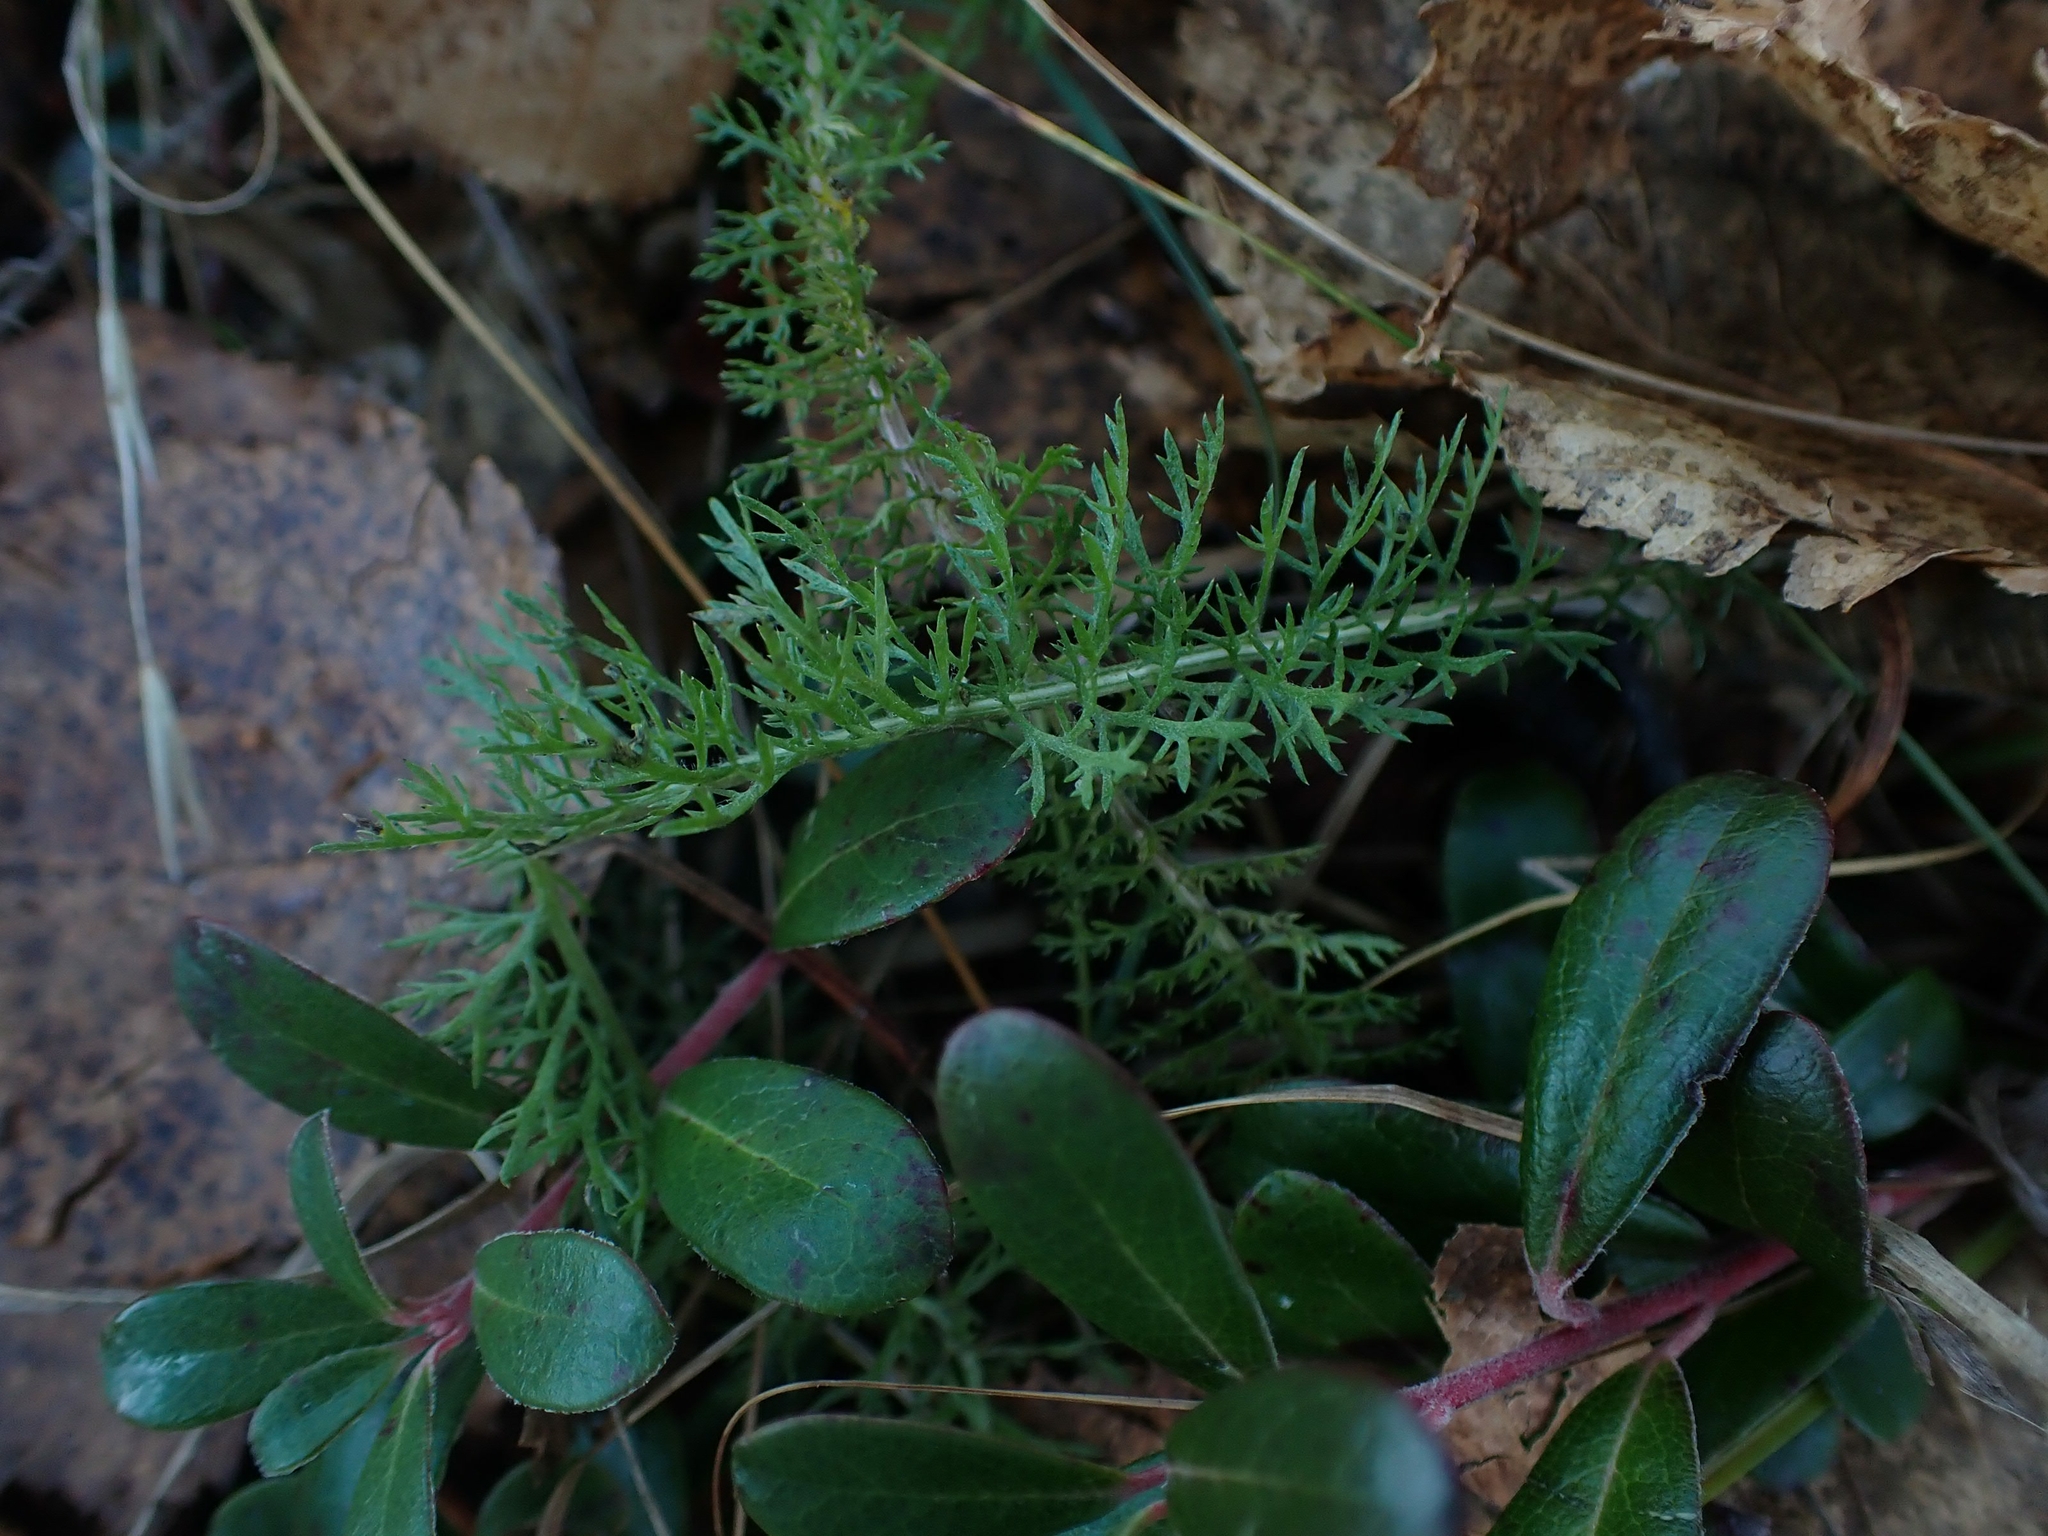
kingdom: Plantae
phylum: Tracheophyta
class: Magnoliopsida
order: Asterales
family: Asteraceae
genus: Achillea
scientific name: Achillea millefolium
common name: Yarrow
